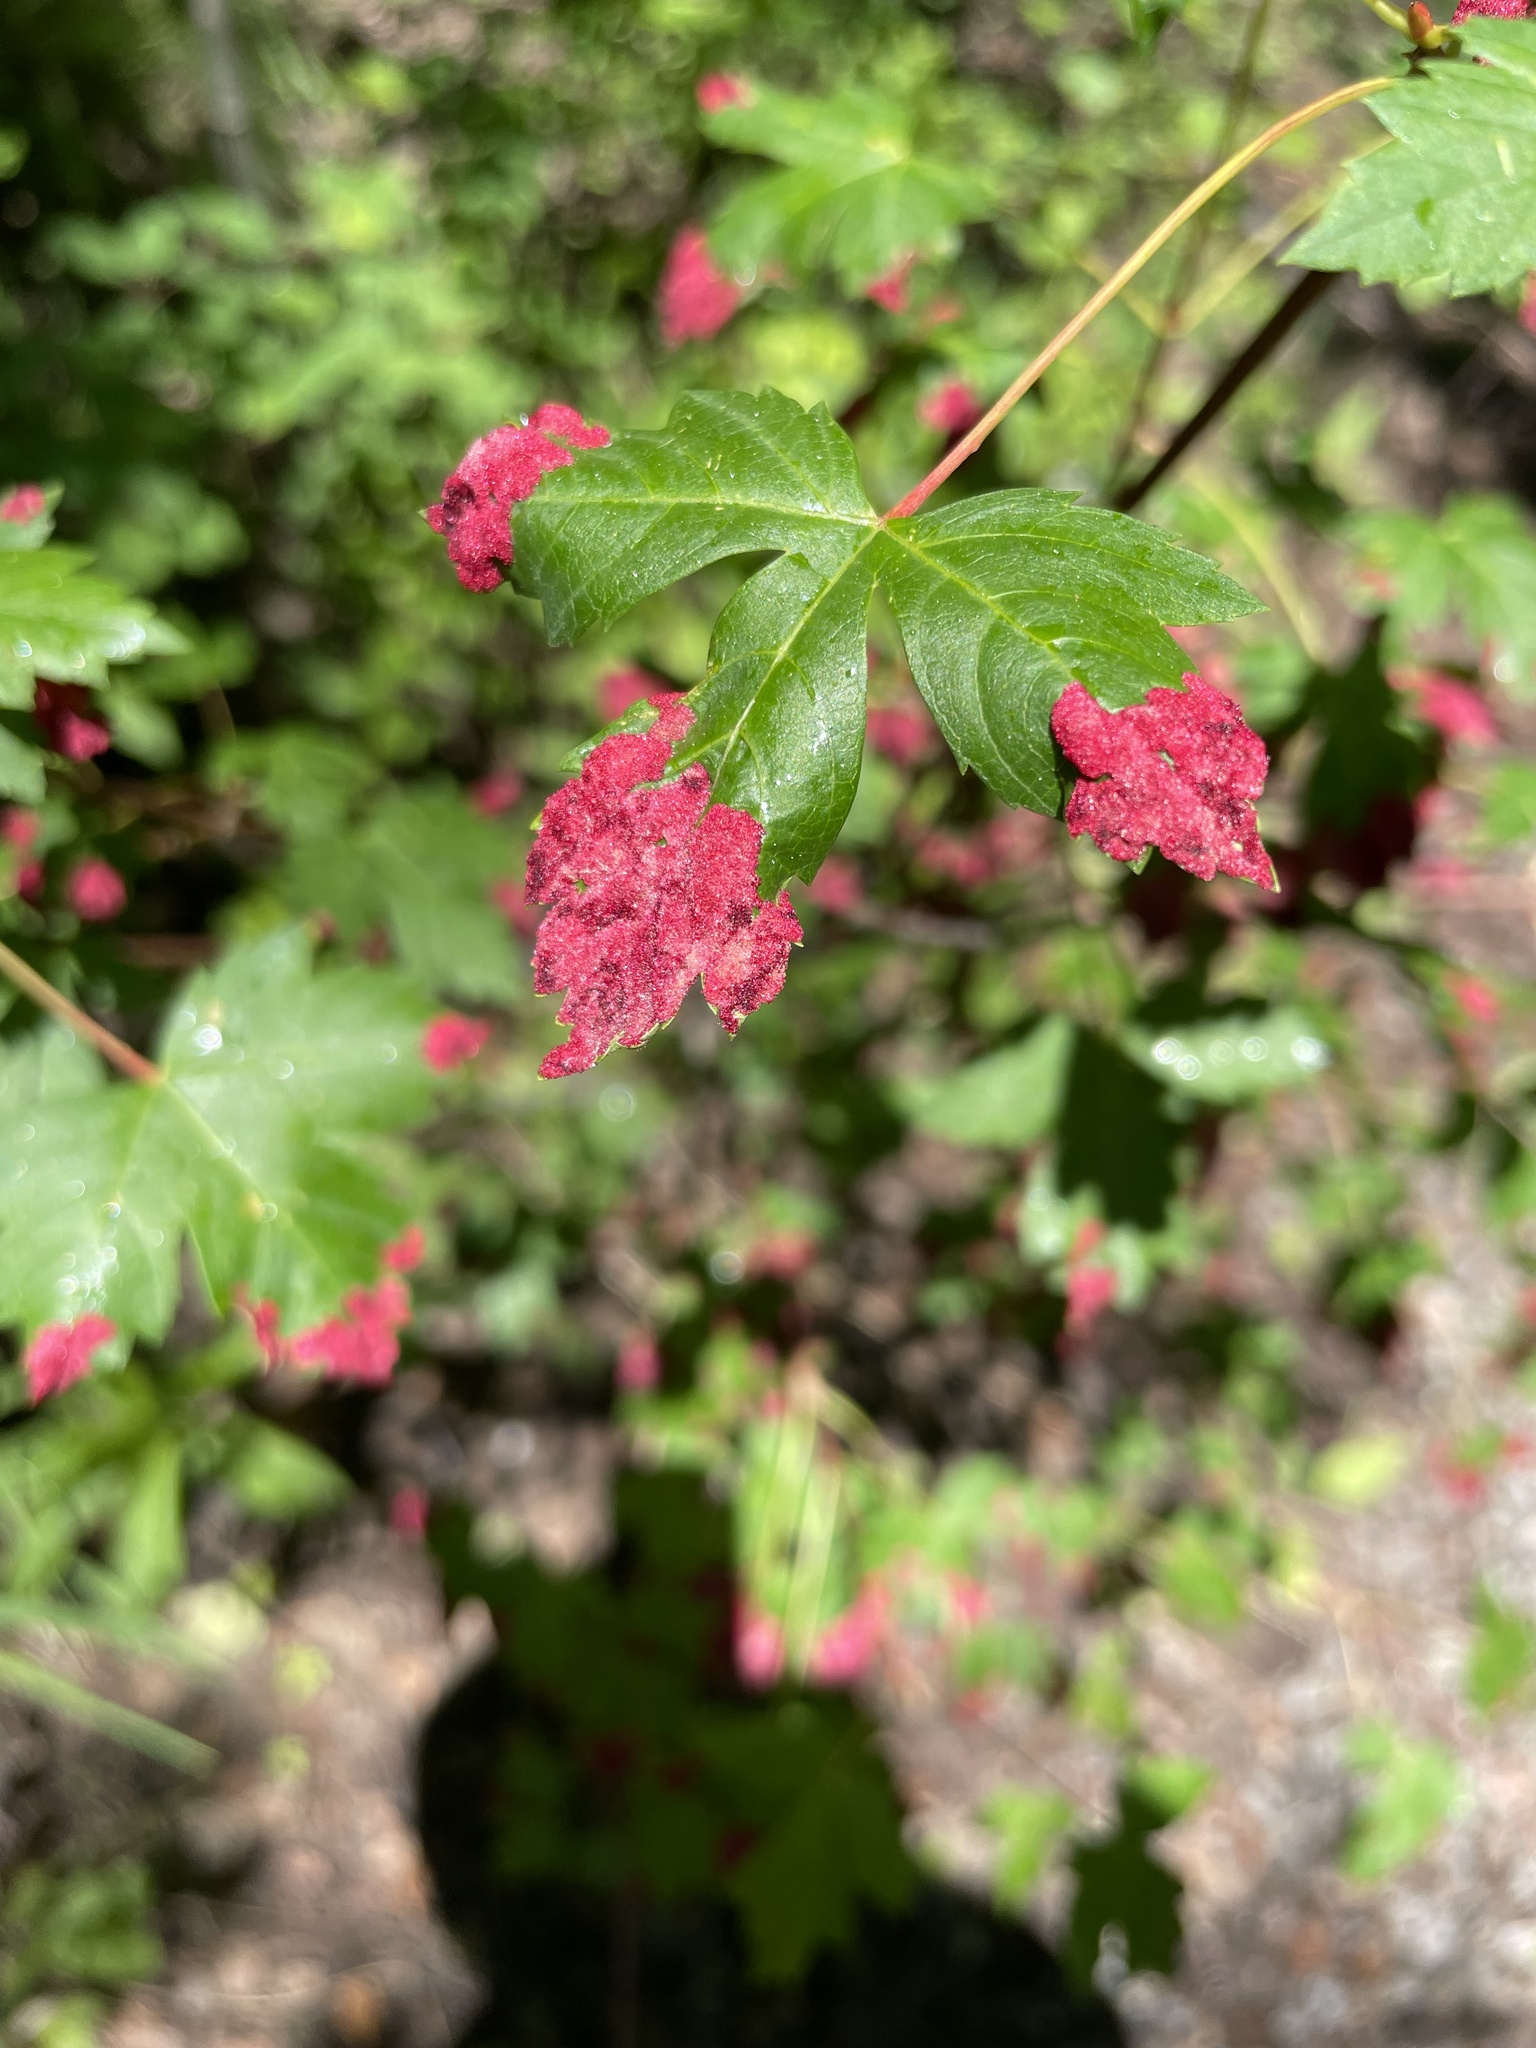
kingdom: Animalia
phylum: Arthropoda
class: Arachnida
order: Trombidiformes
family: Eriophyidae
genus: Aceria
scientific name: Aceria
